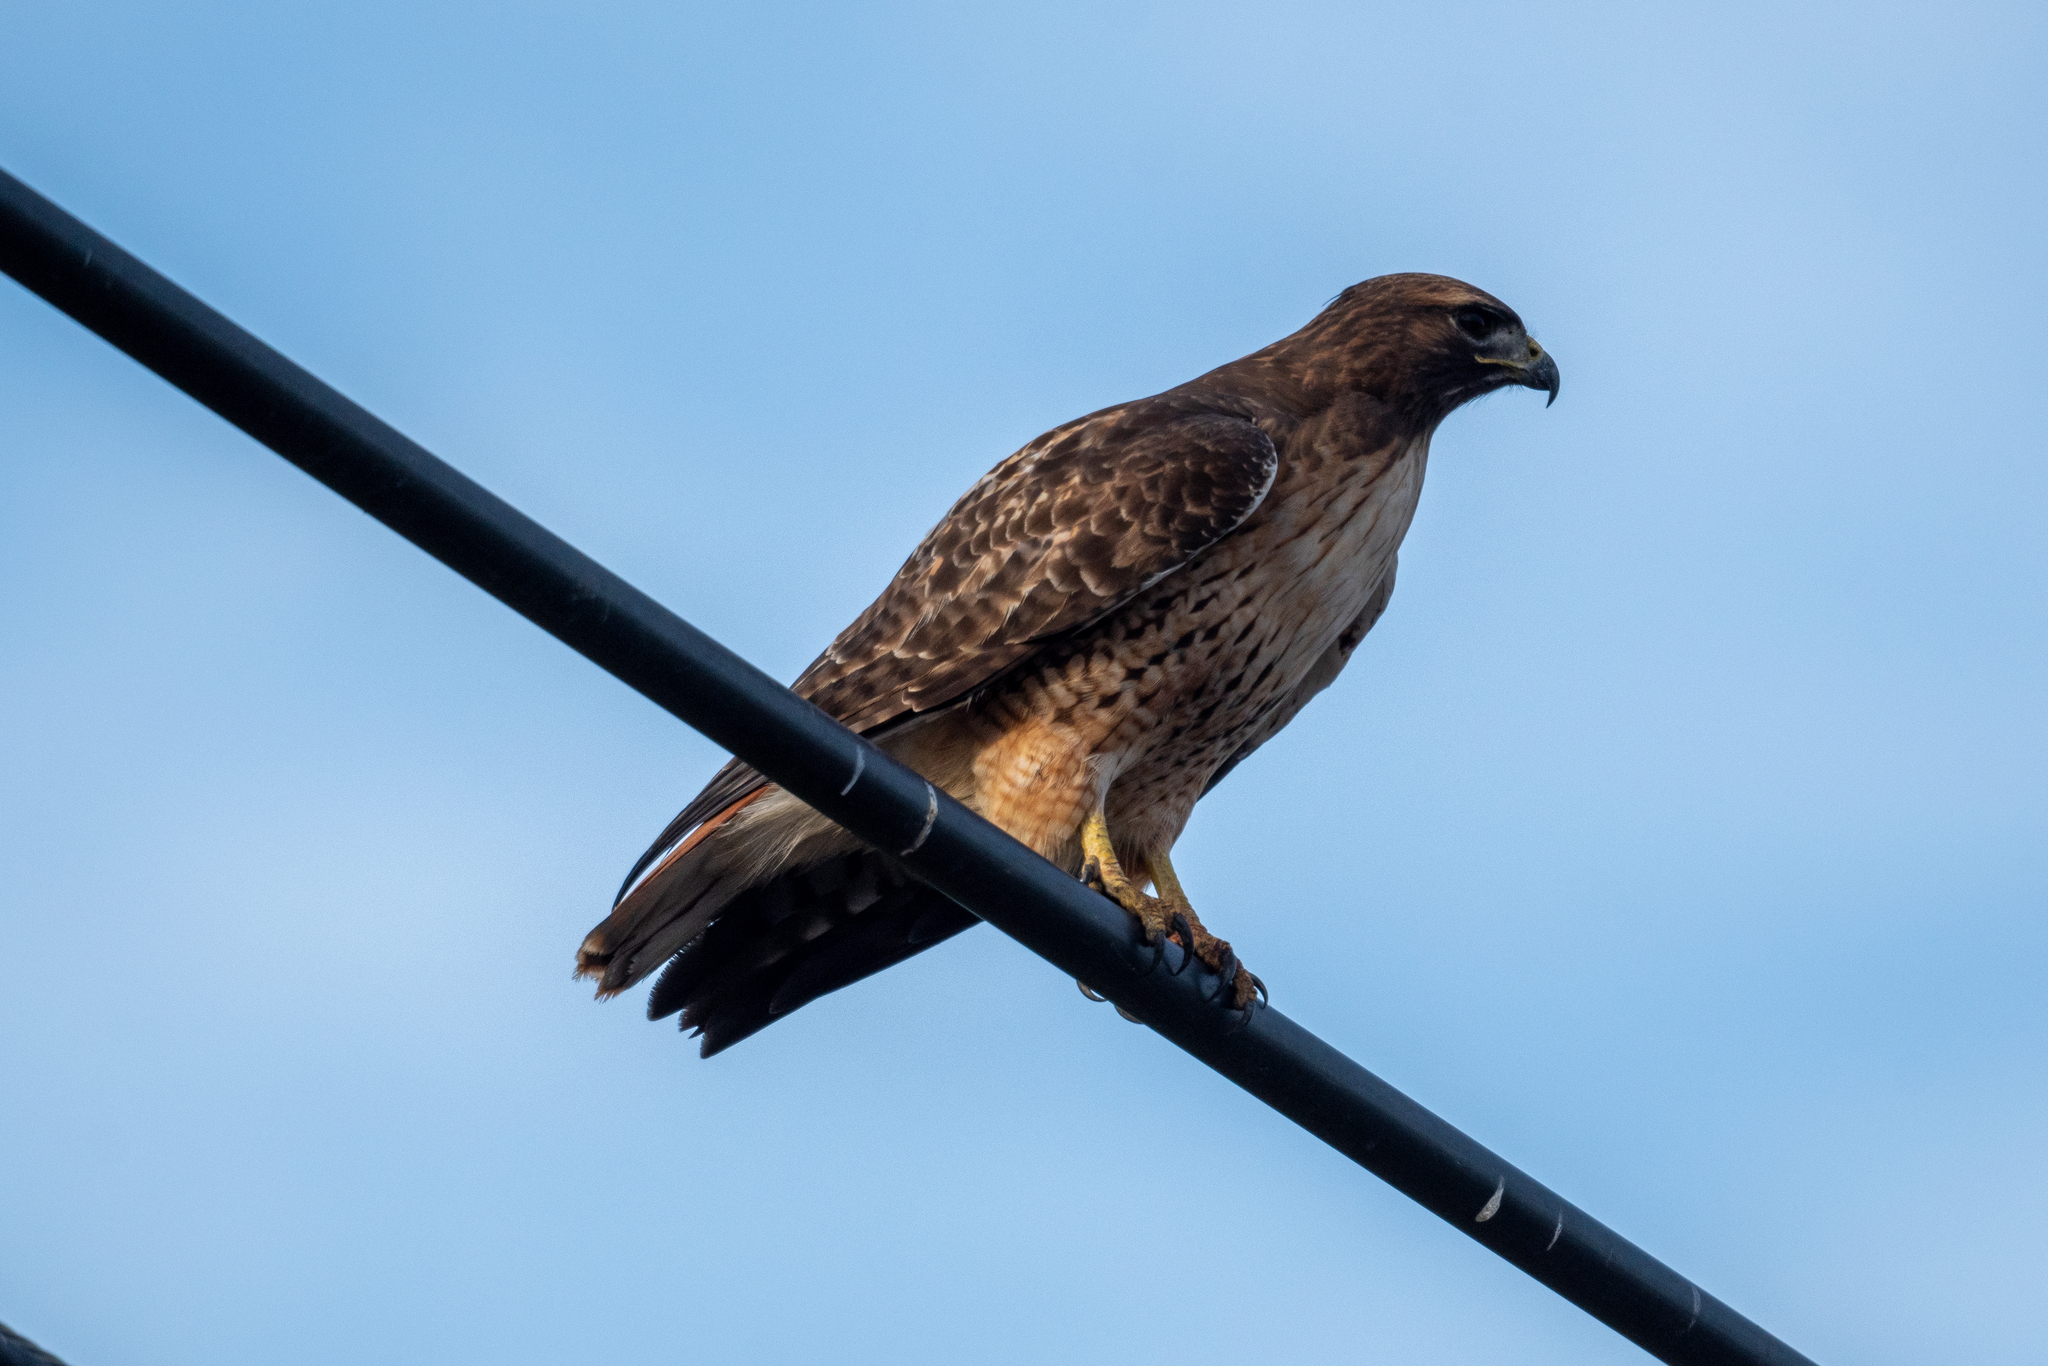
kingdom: Animalia
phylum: Chordata
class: Aves
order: Accipitriformes
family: Accipitridae
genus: Buteo
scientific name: Buteo jamaicensis
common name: Red-tailed hawk
